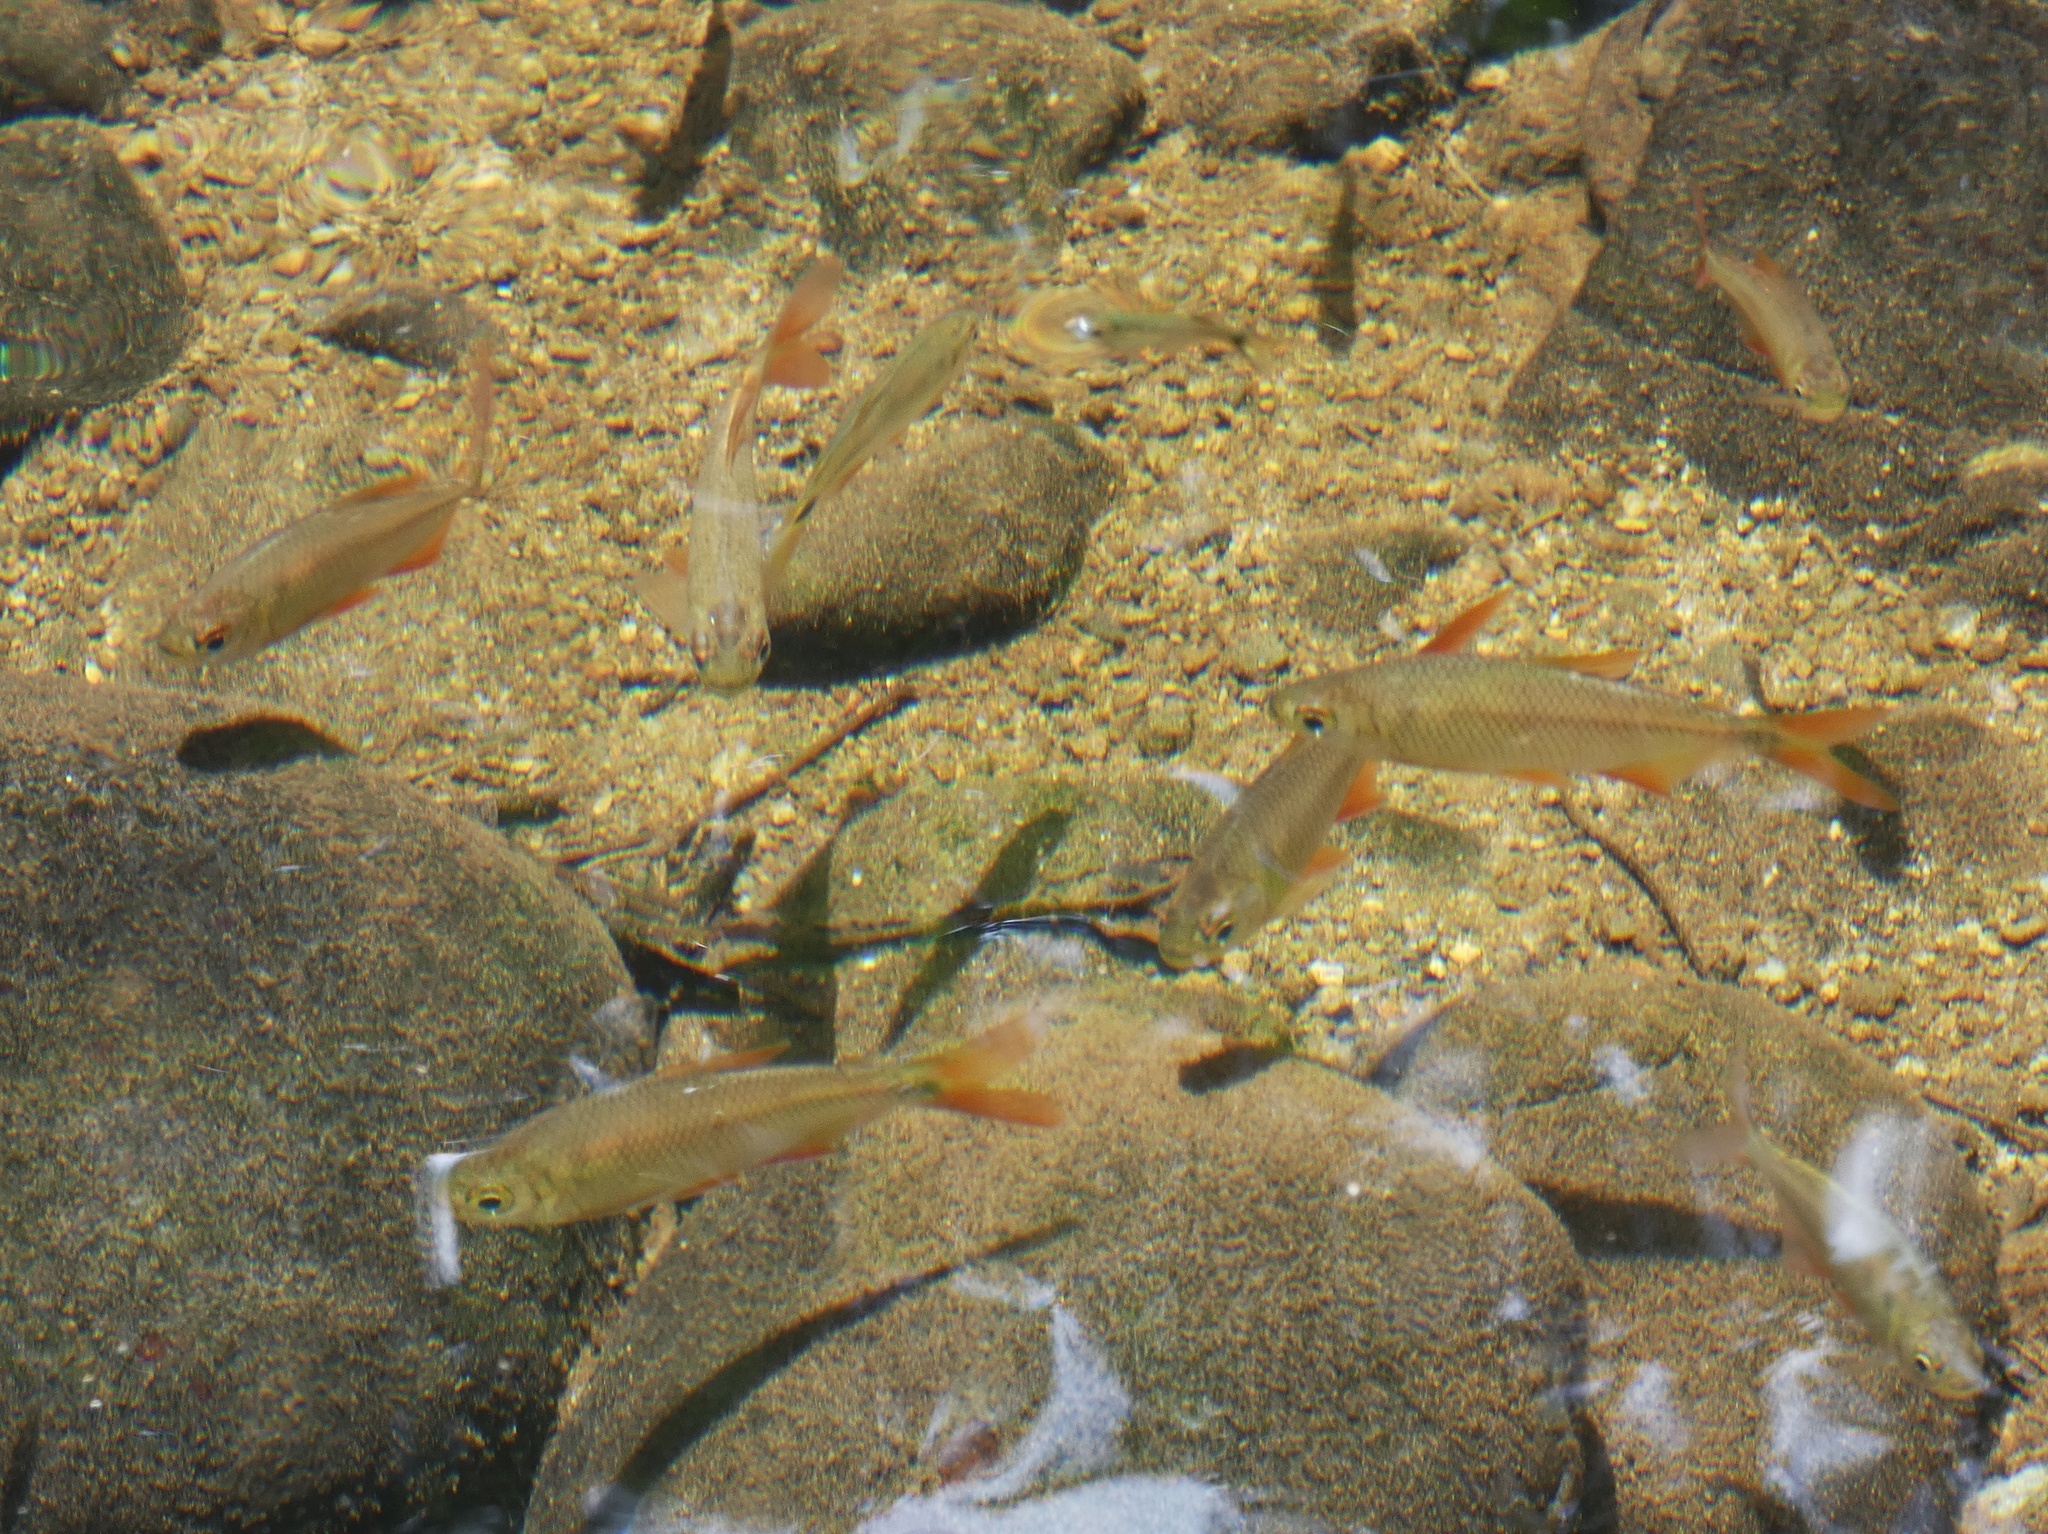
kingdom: Animalia
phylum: Chordata
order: Characiformes
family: Characidae
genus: Astyanax
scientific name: Astyanax fasciatus
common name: Banded astyanax
